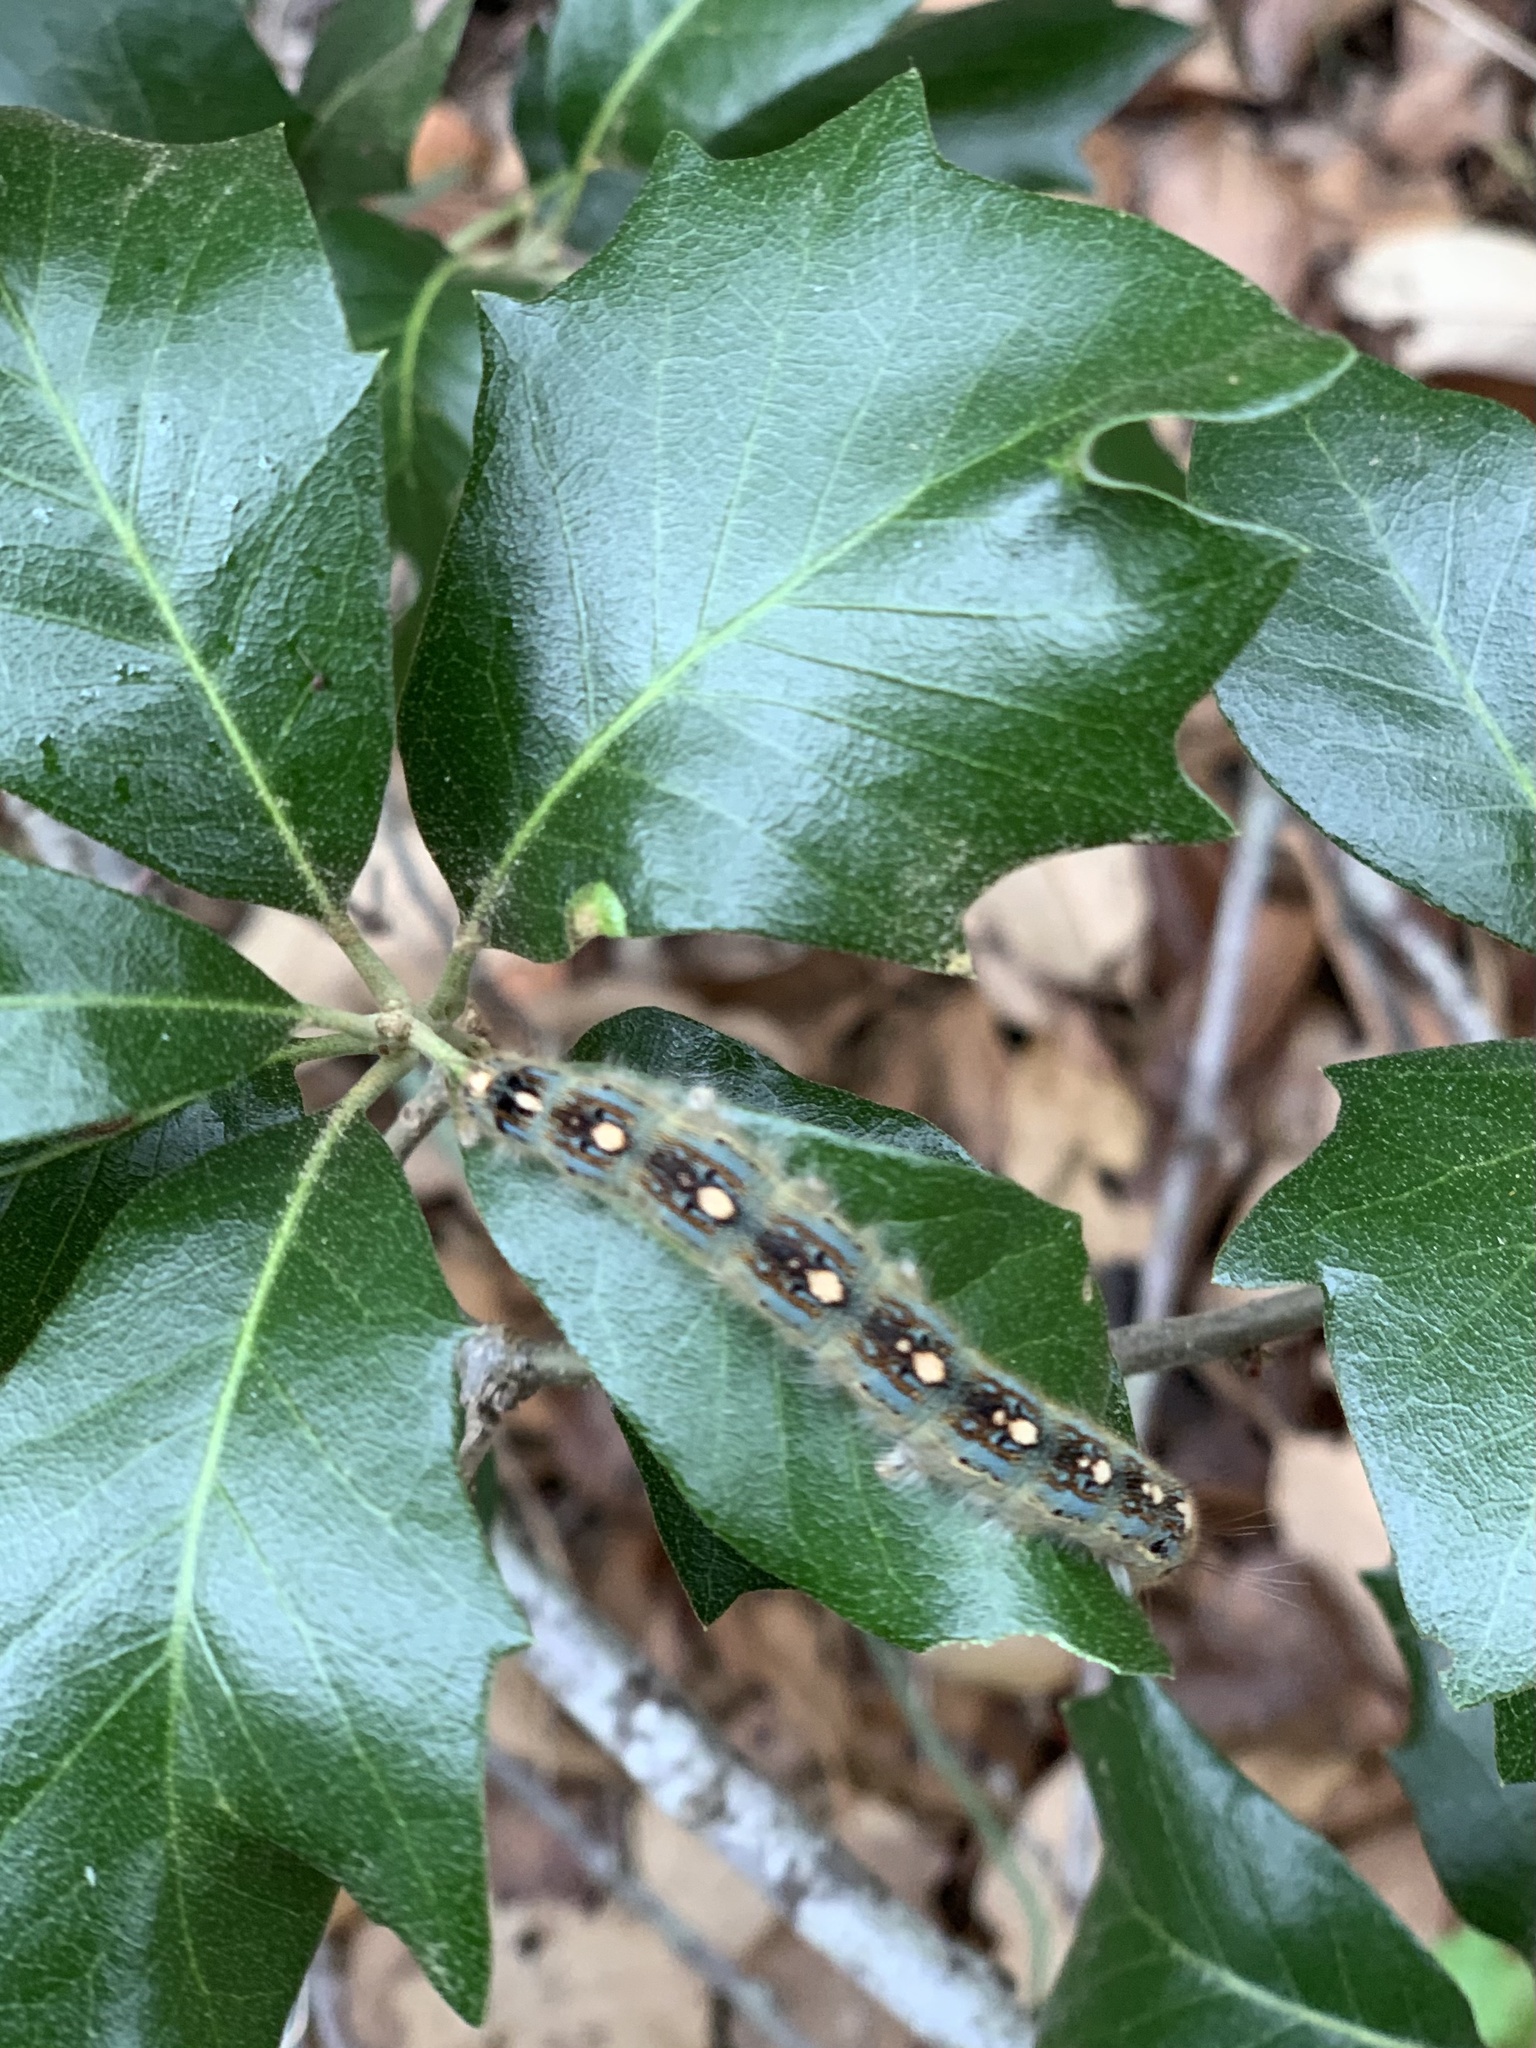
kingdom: Animalia
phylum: Arthropoda
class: Insecta
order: Lepidoptera
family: Lasiocampidae
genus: Malacosoma
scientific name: Malacosoma disstria
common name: Forest tent caterpillar
